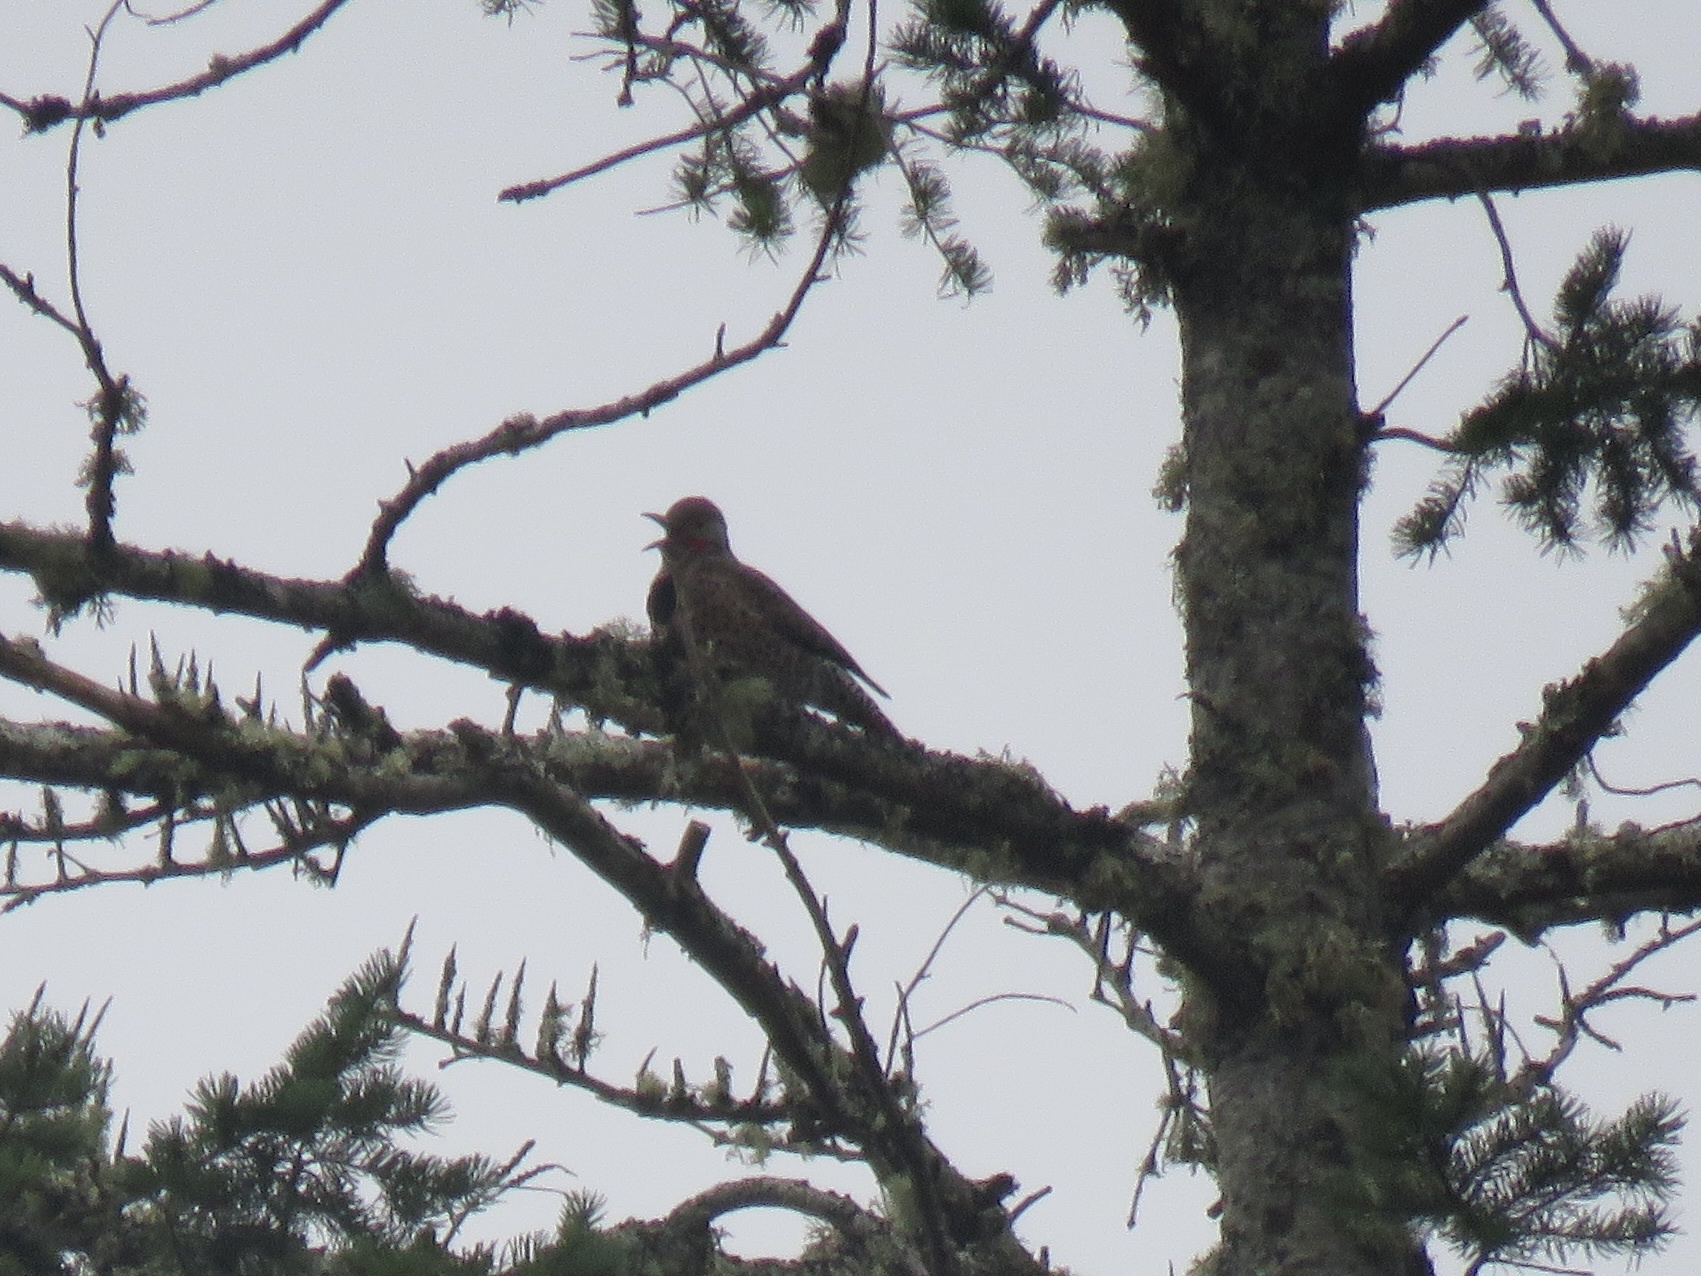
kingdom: Animalia
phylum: Chordata
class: Aves
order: Piciformes
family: Picidae
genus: Colaptes
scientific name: Colaptes auratus
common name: Northern flicker
